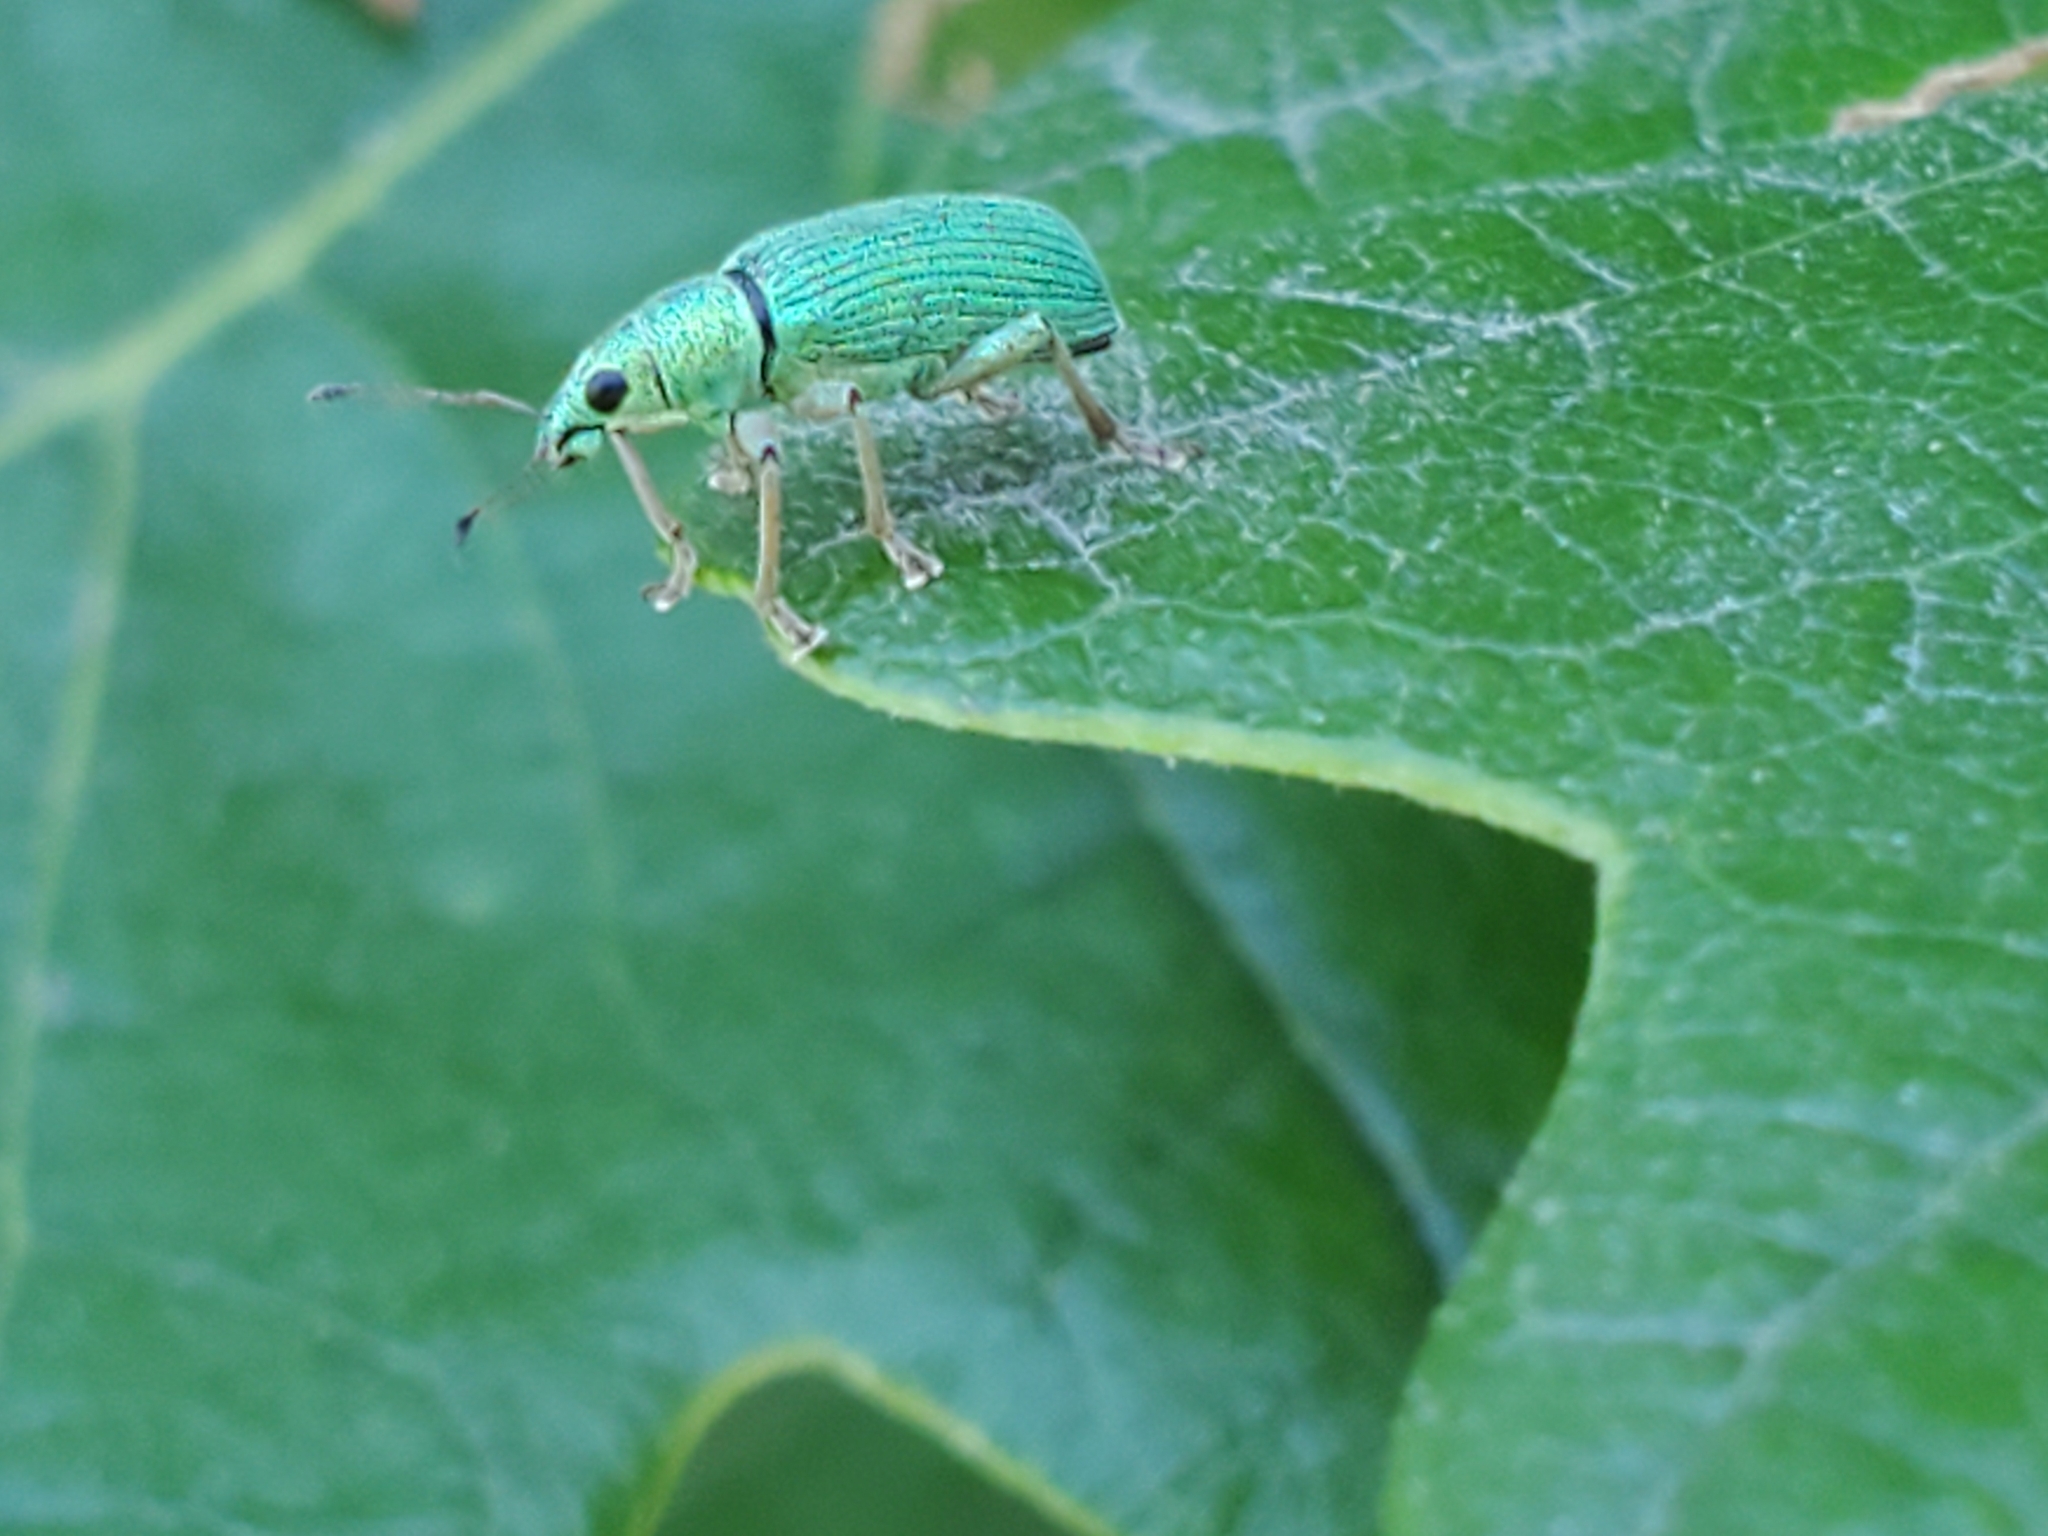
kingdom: Animalia
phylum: Arthropoda
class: Insecta
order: Coleoptera
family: Curculionidae
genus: Polydrusus
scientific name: Polydrusus formosus
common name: Weevil
